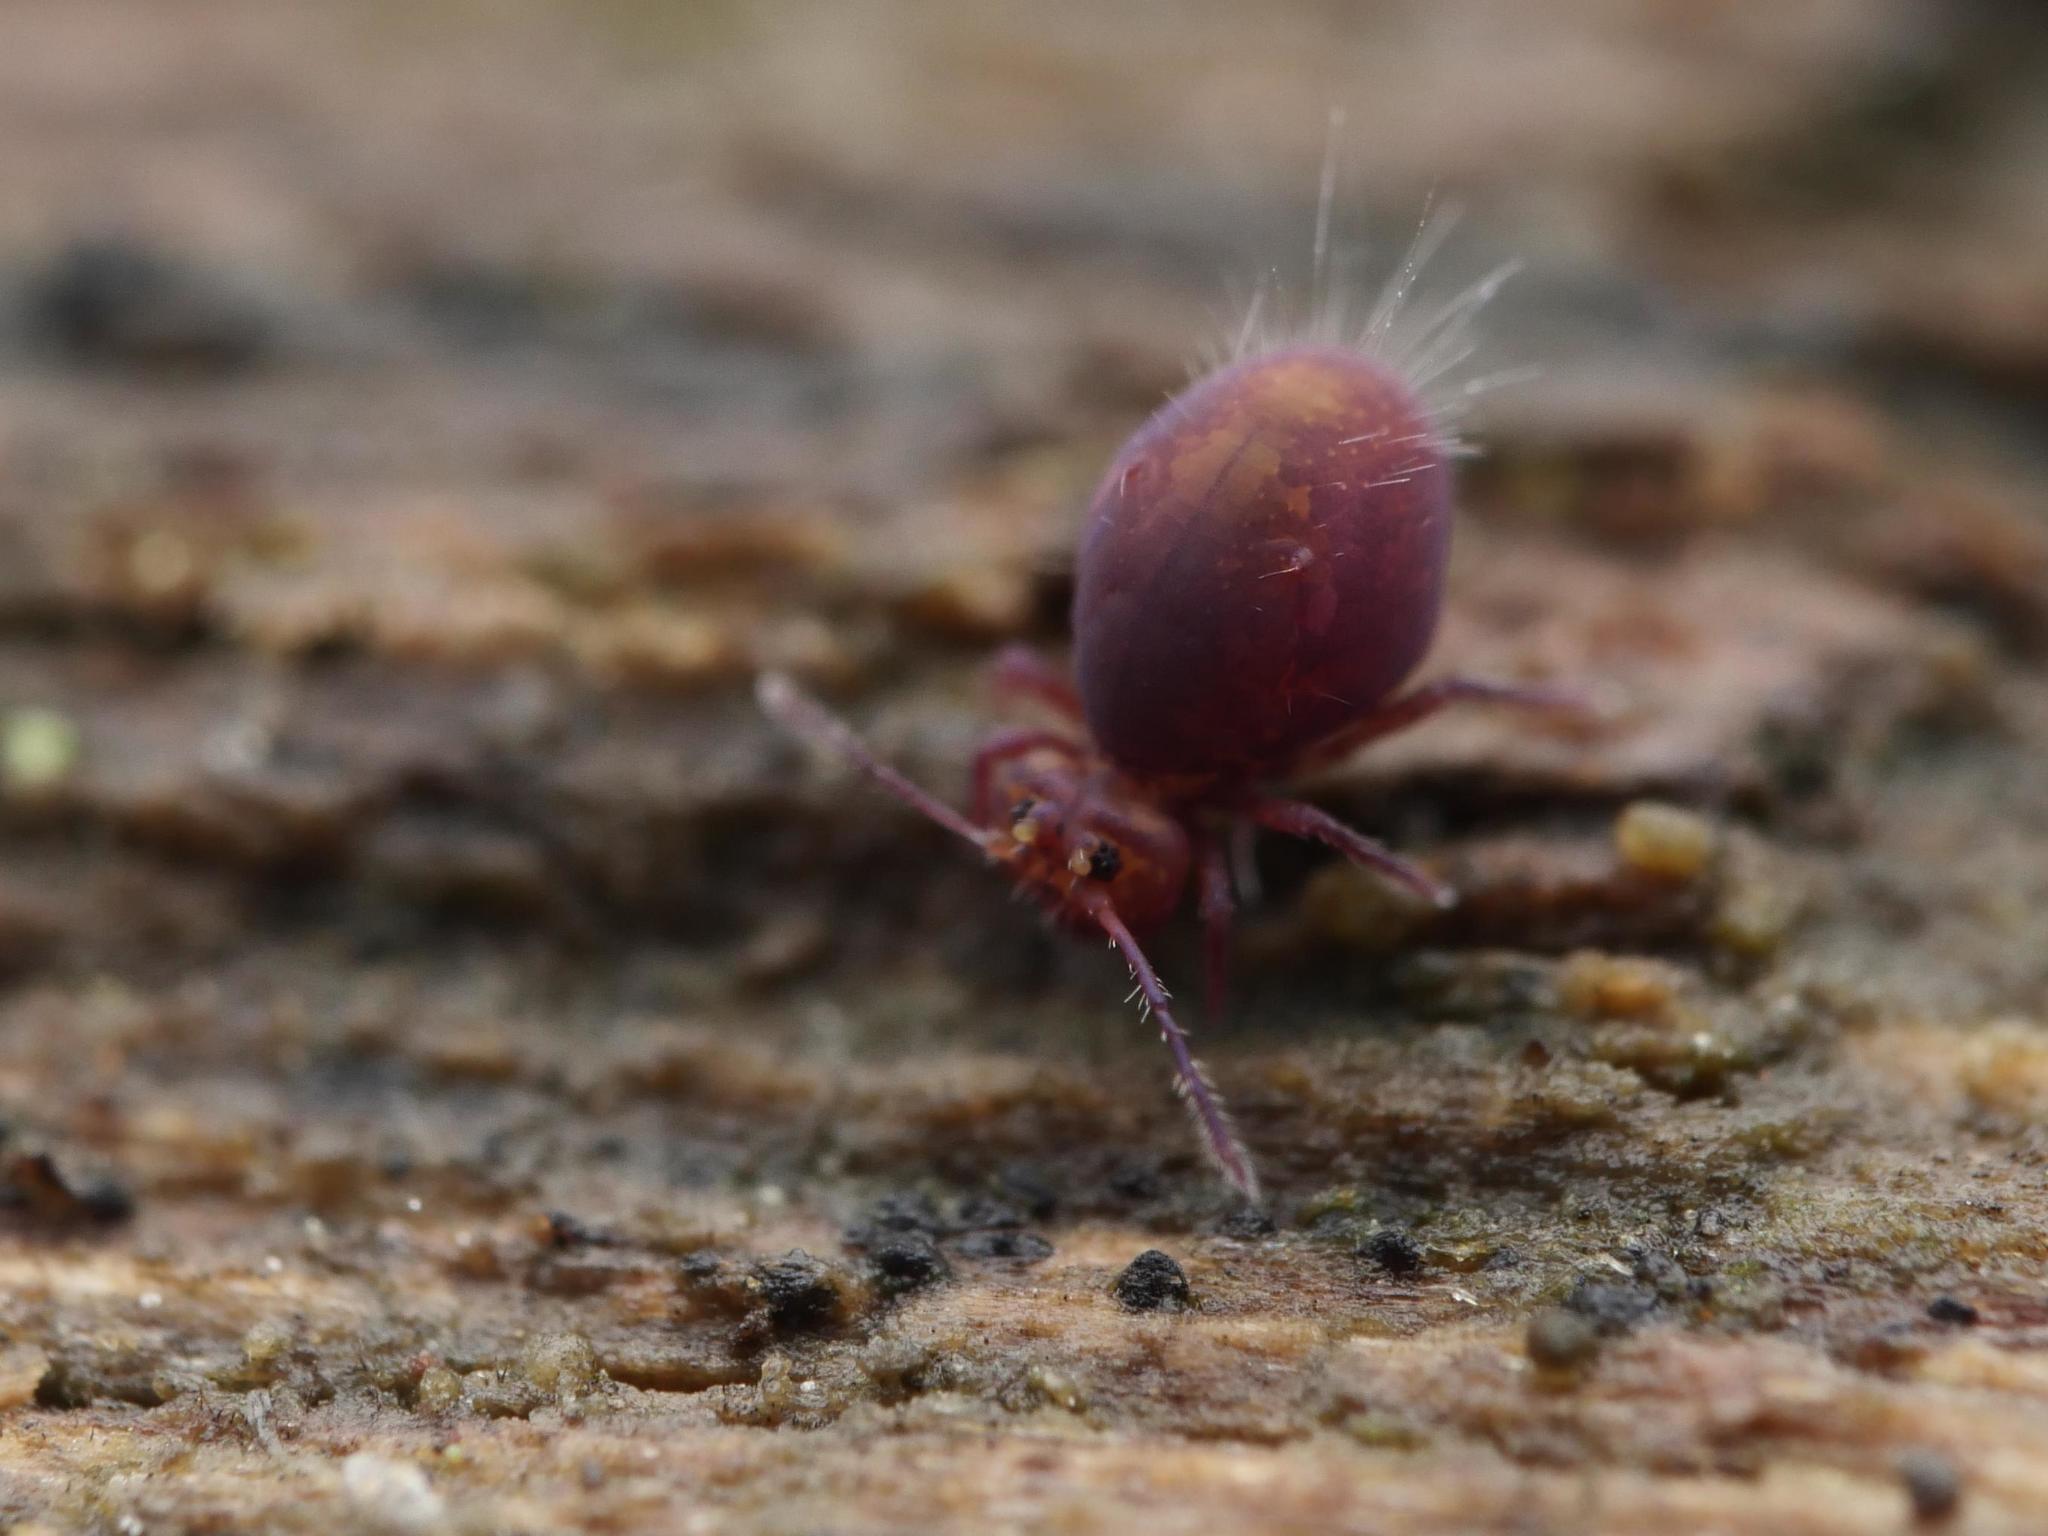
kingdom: Animalia
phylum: Arthropoda
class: Collembola
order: Symphypleona
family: Dicyrtomidae
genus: Dicyrtoma
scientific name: Dicyrtoma fusca
